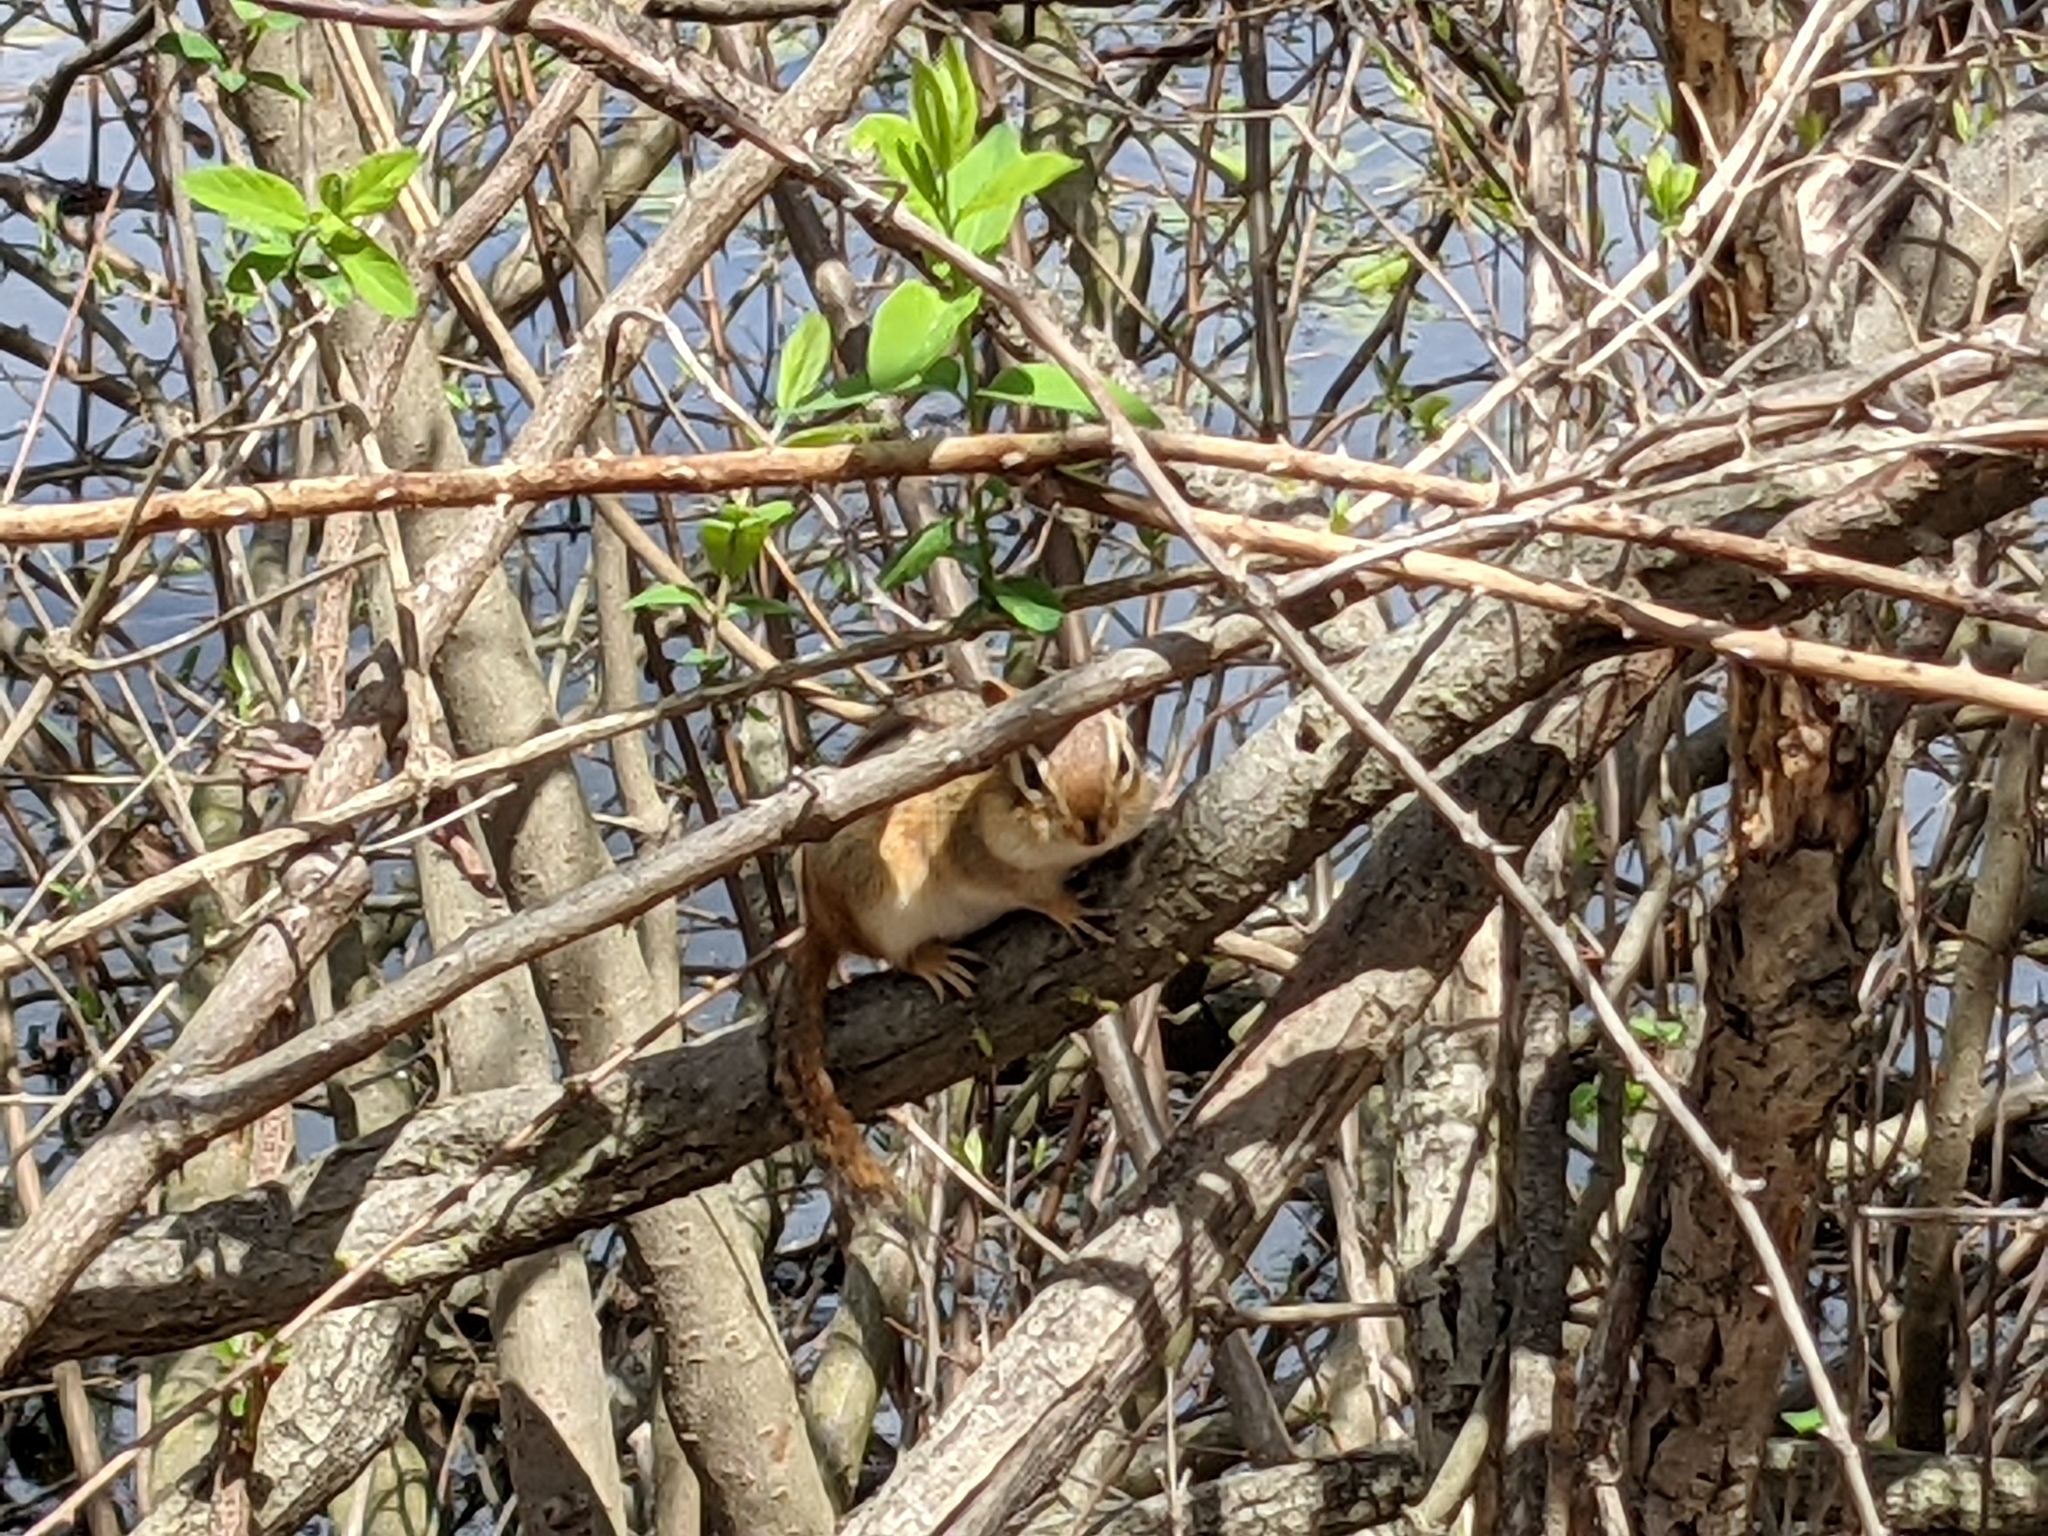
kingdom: Animalia
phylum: Chordata
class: Mammalia
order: Rodentia
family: Sciuridae
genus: Tamias
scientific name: Tamias striatus
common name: Eastern chipmunk
